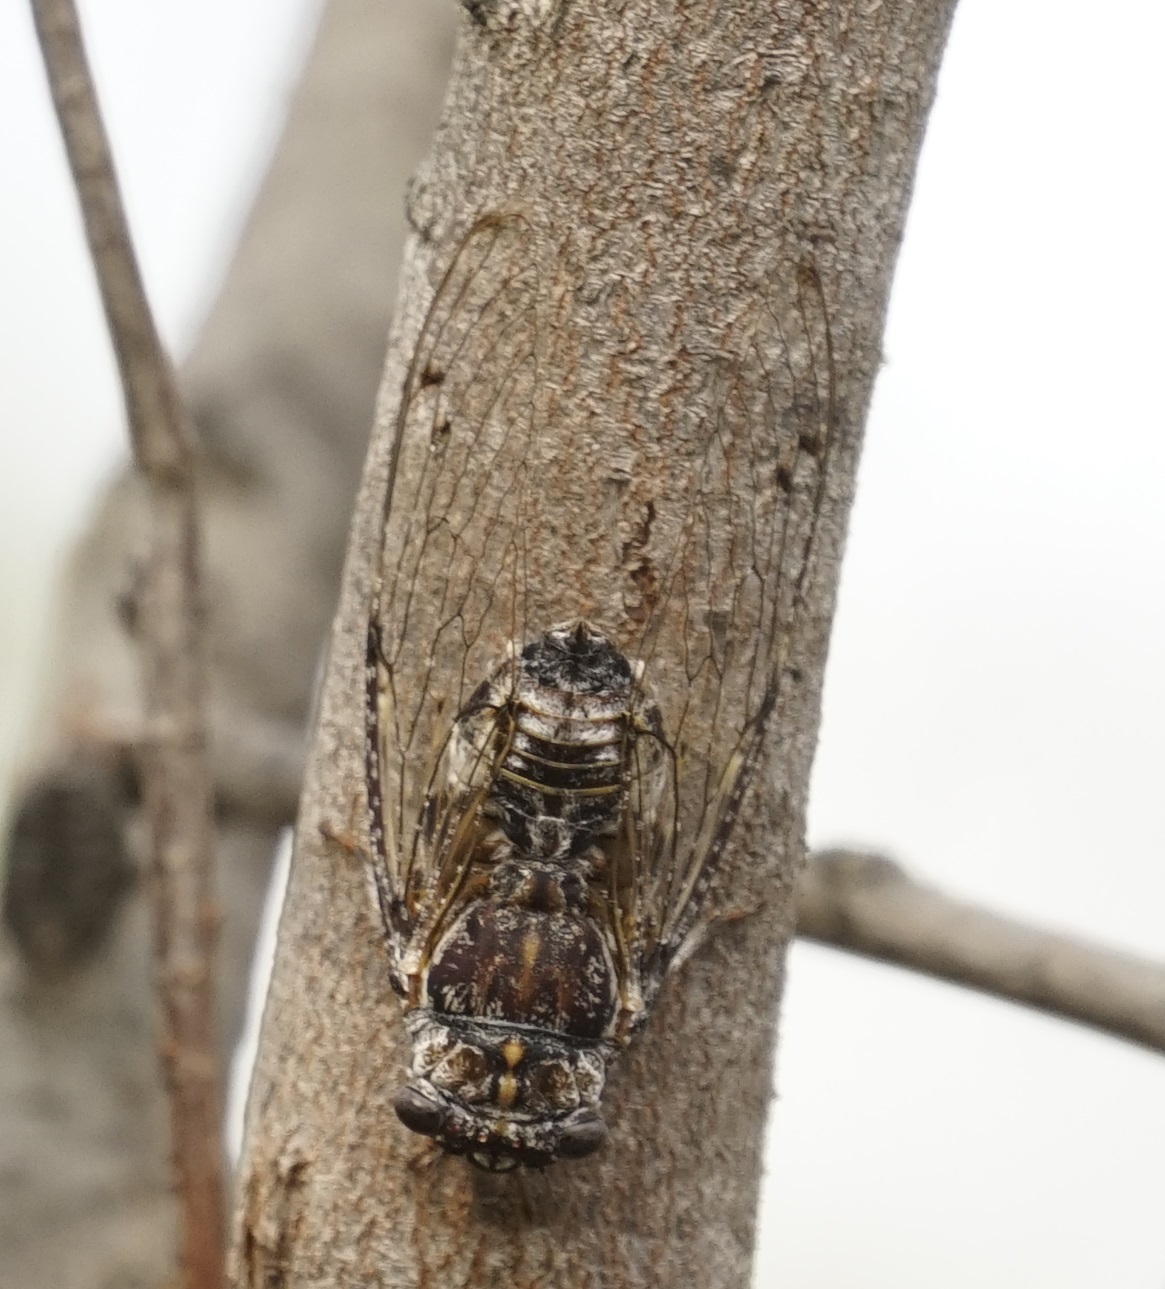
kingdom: Animalia
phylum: Arthropoda
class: Insecta
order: Hemiptera
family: Cicadidae
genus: Aleeta
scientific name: Aleeta curvicosta
